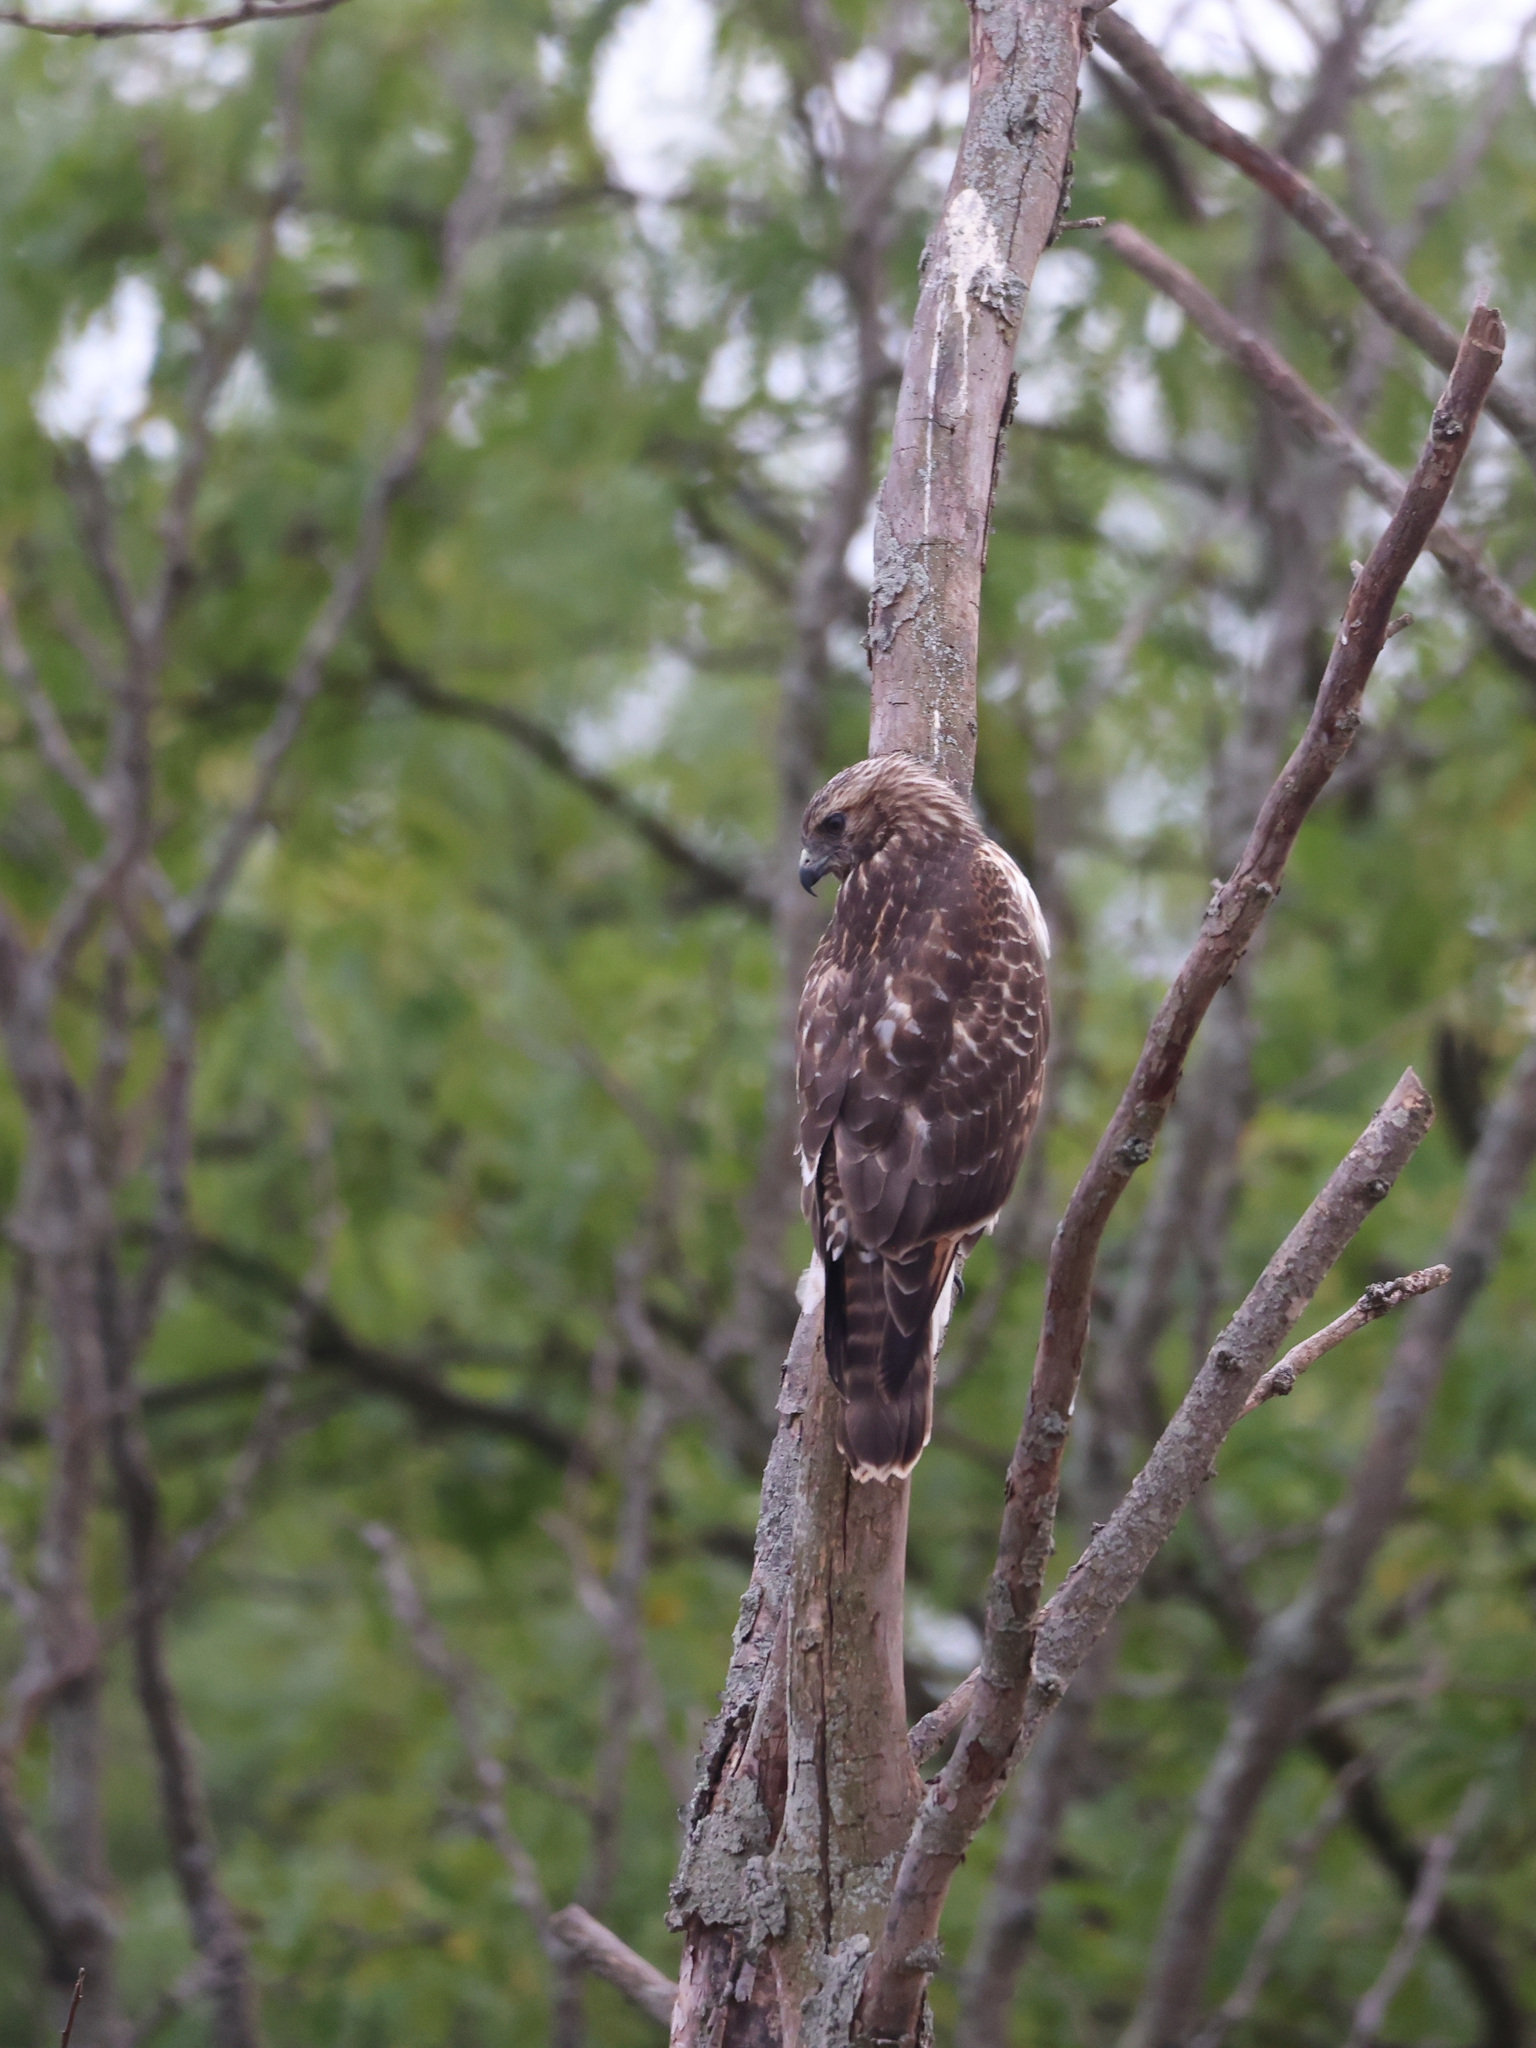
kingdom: Animalia
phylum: Chordata
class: Aves
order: Accipitriformes
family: Accipitridae
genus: Buteo
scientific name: Buteo lineatus
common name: Red-shouldered hawk
